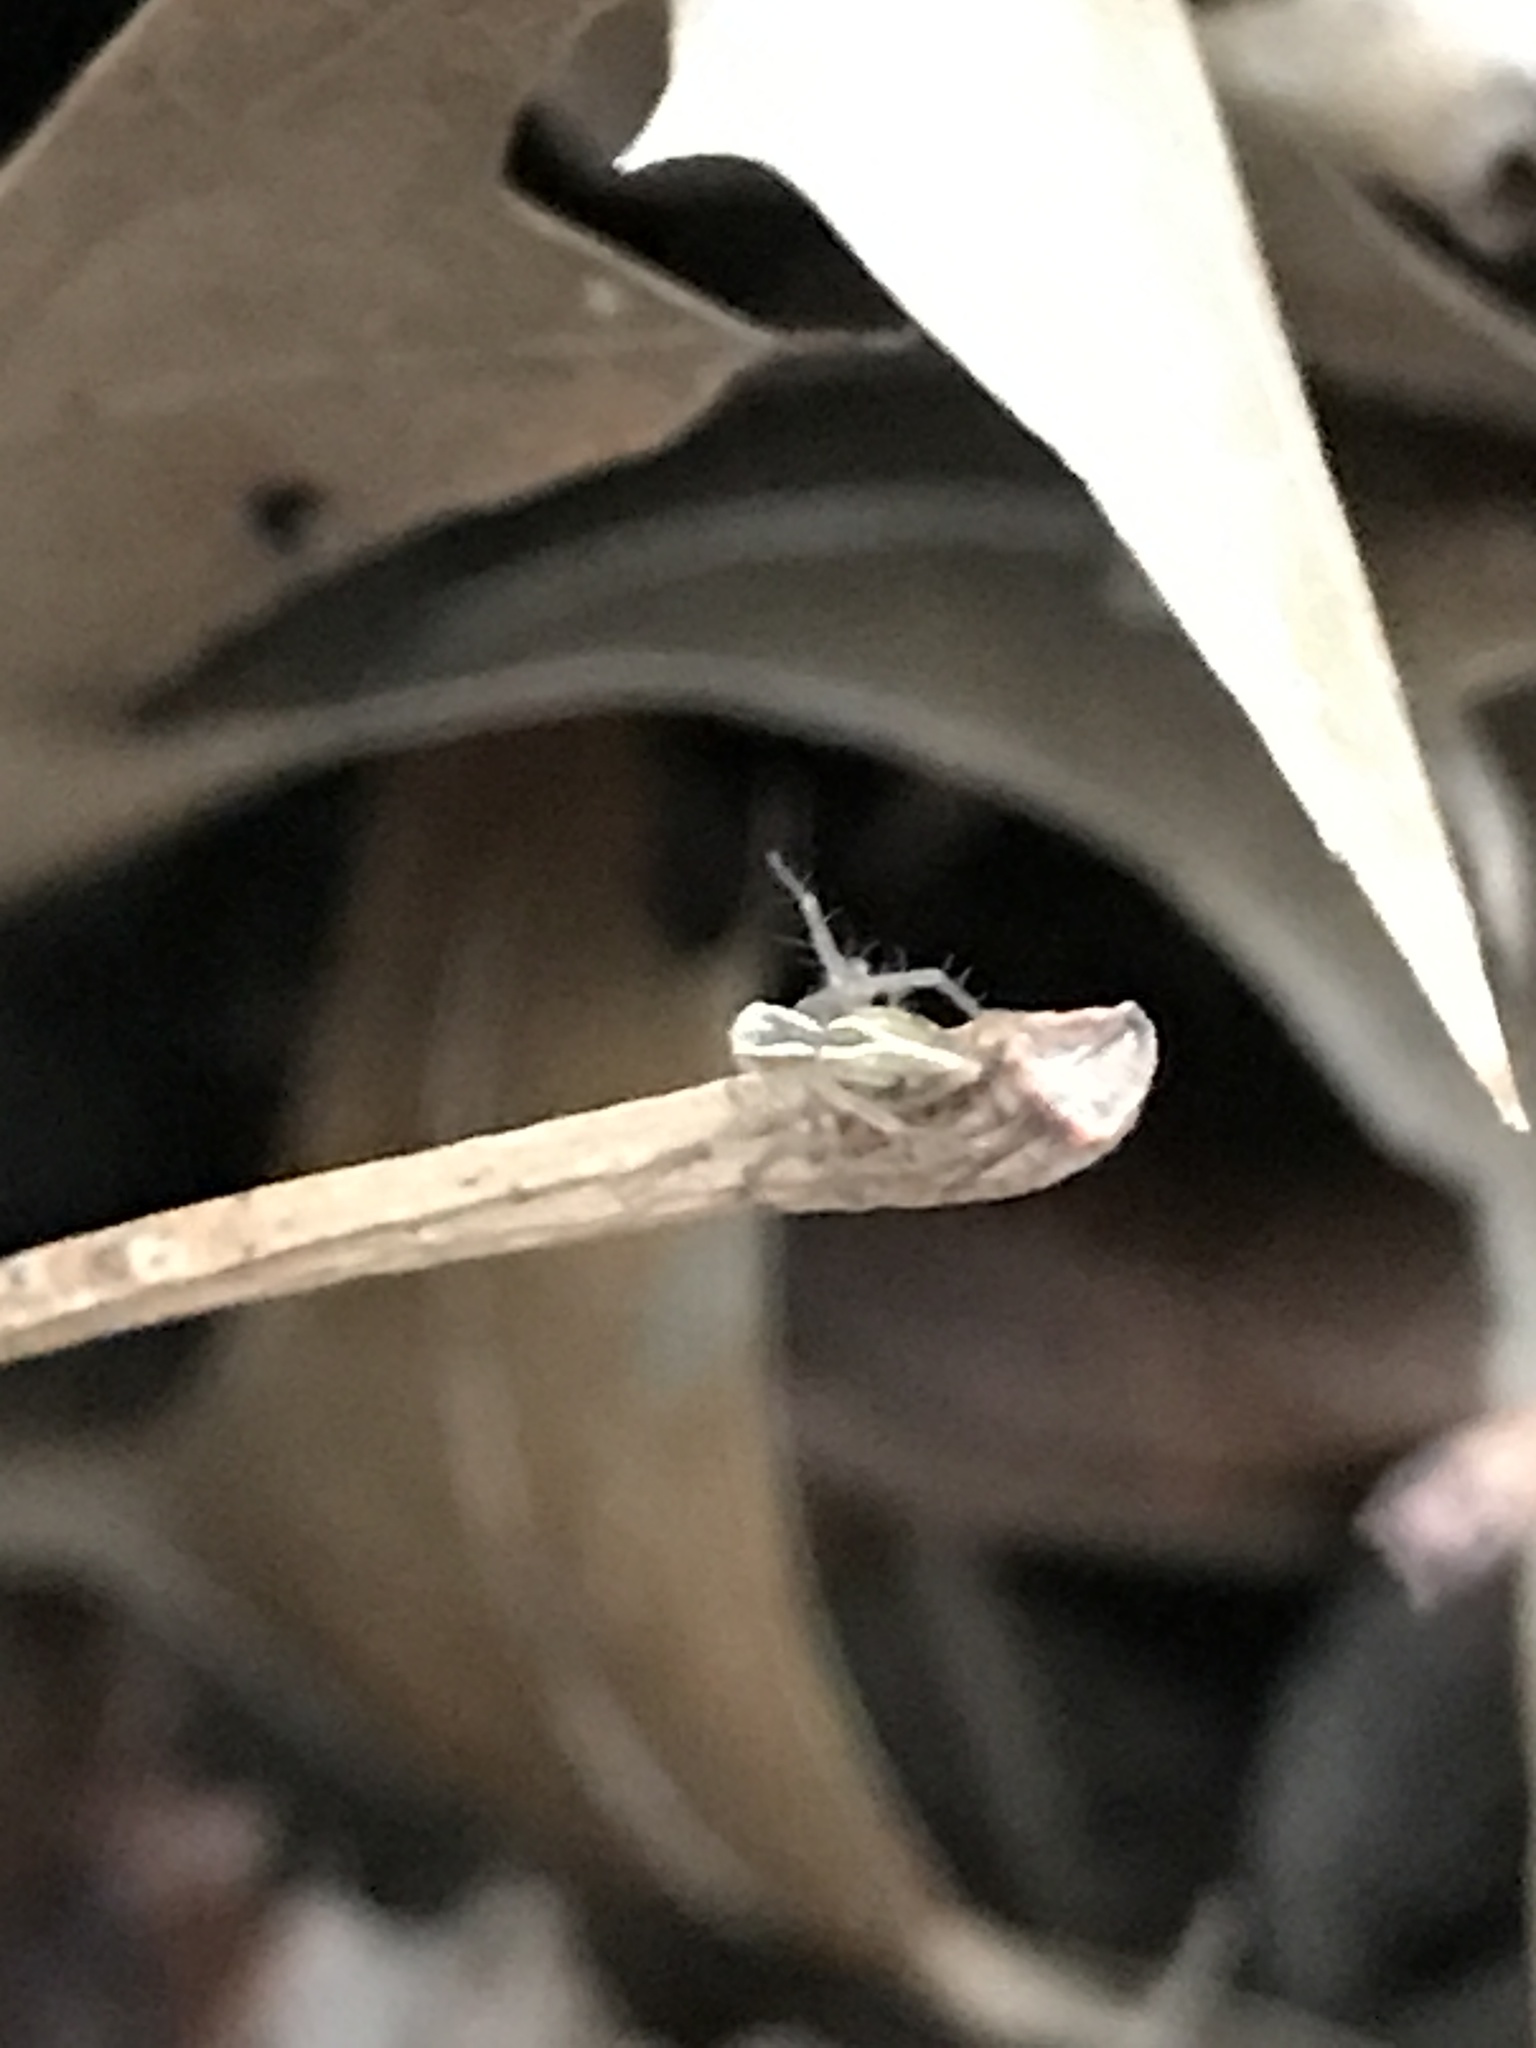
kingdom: Animalia
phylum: Arthropoda
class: Arachnida
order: Araneae
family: Oxyopidae
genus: Oxyopes
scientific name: Oxyopes salticus
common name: Lynx spiders
